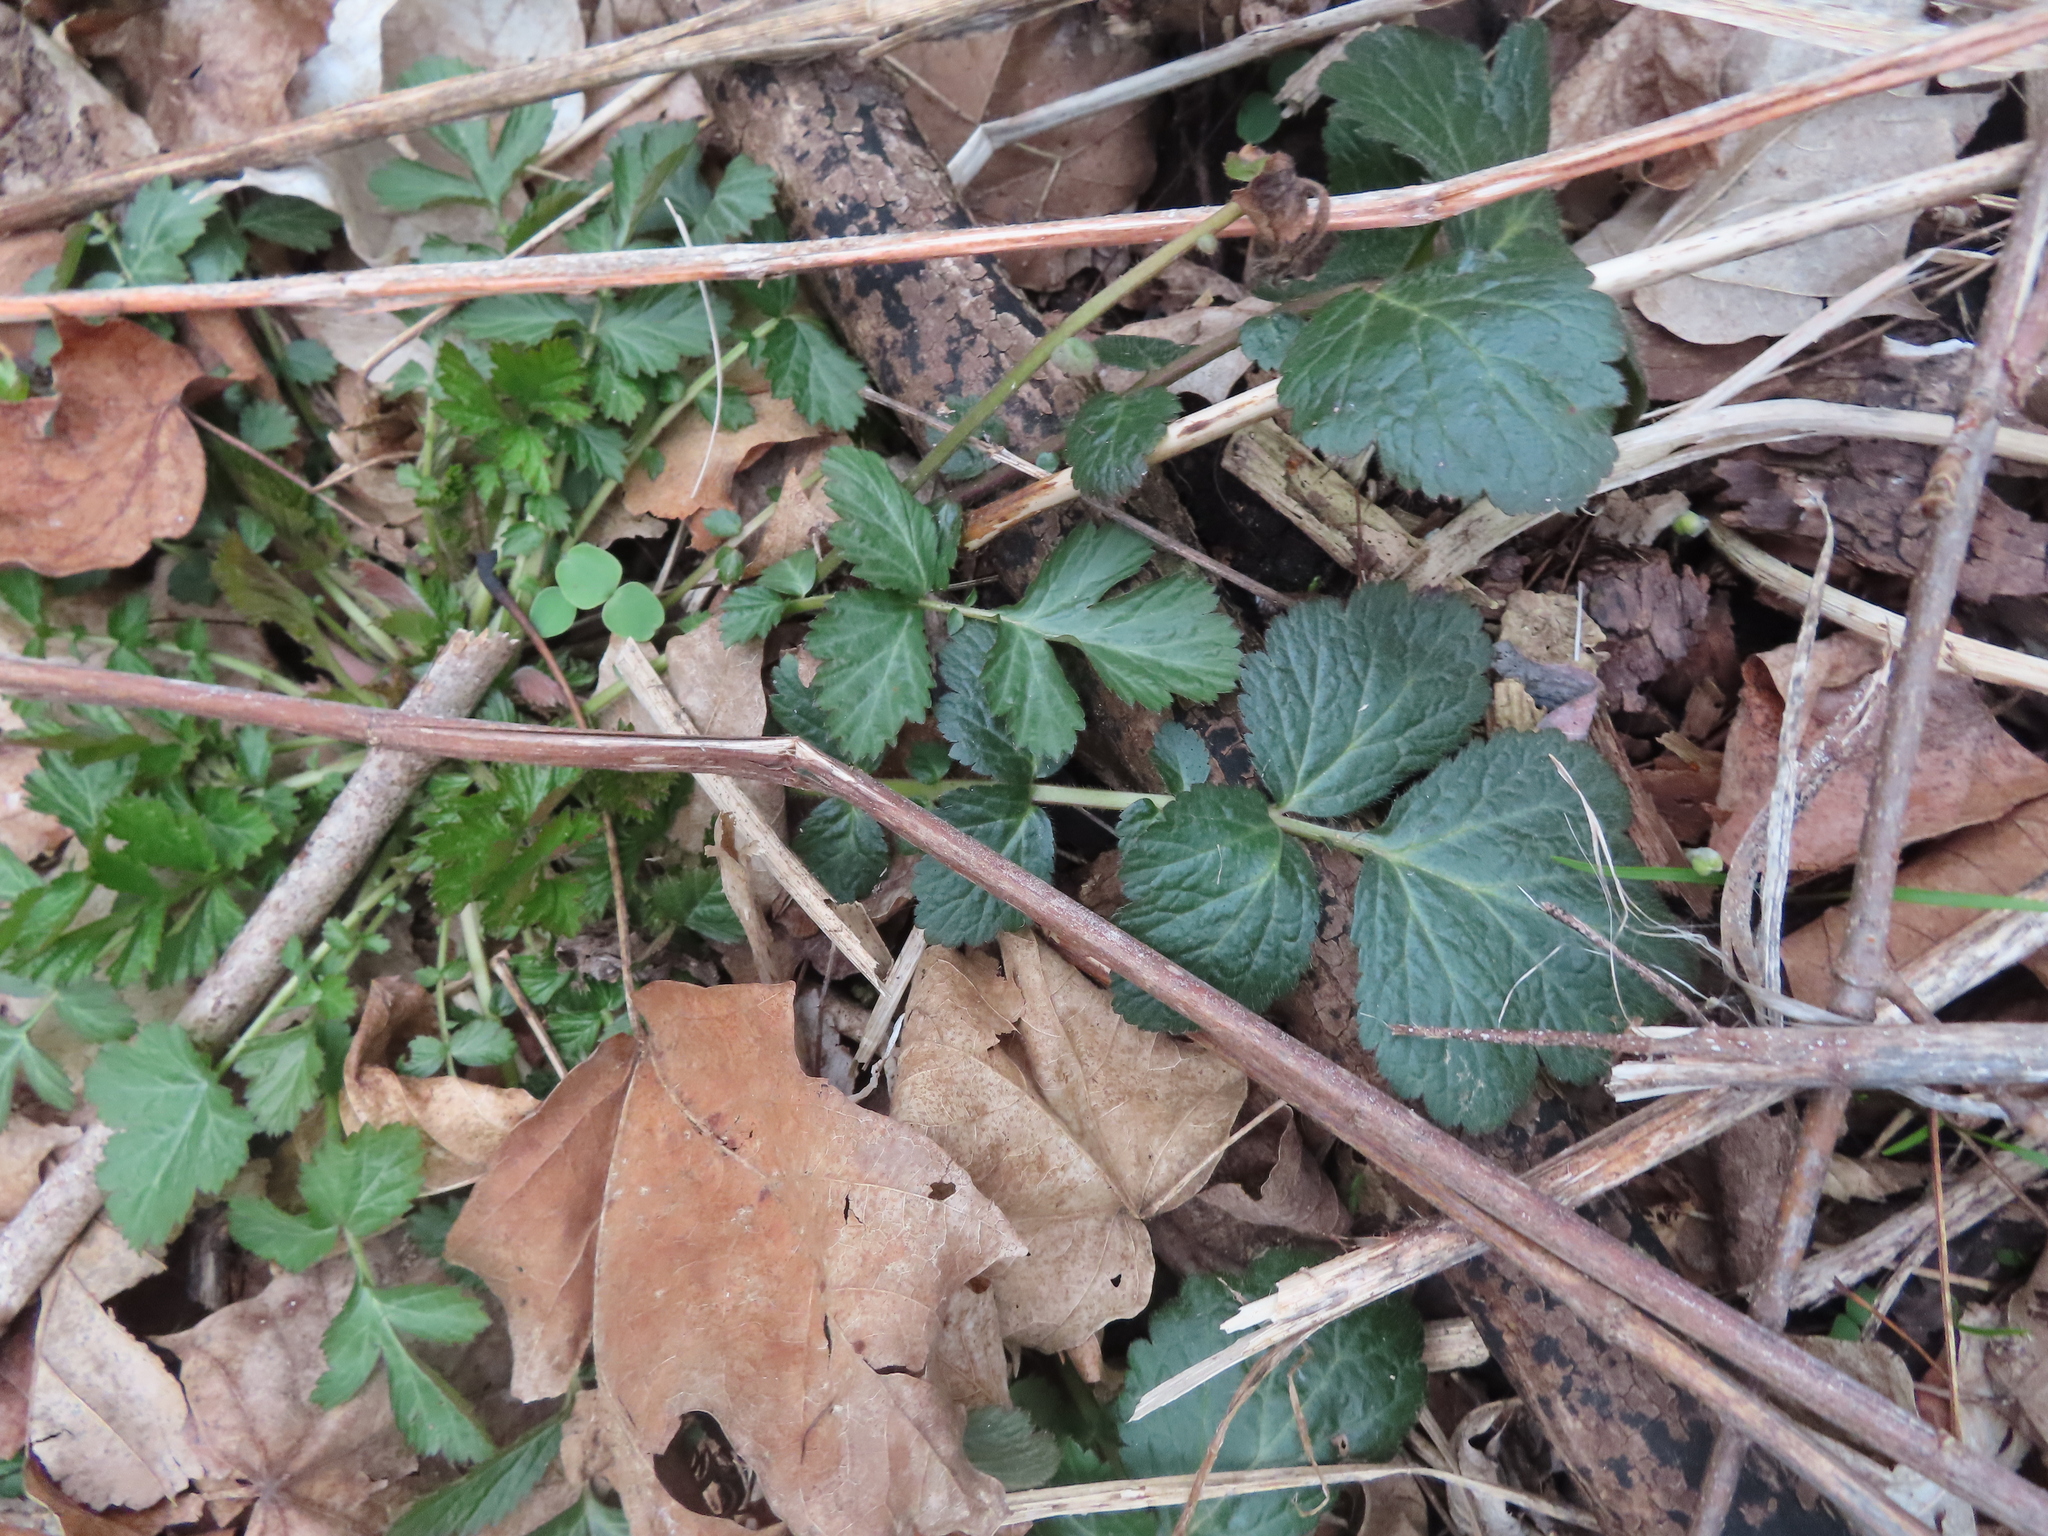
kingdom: Plantae
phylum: Tracheophyta
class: Magnoliopsida
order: Rosales
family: Rosaceae
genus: Geum
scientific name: Geum canadense
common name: White avens
